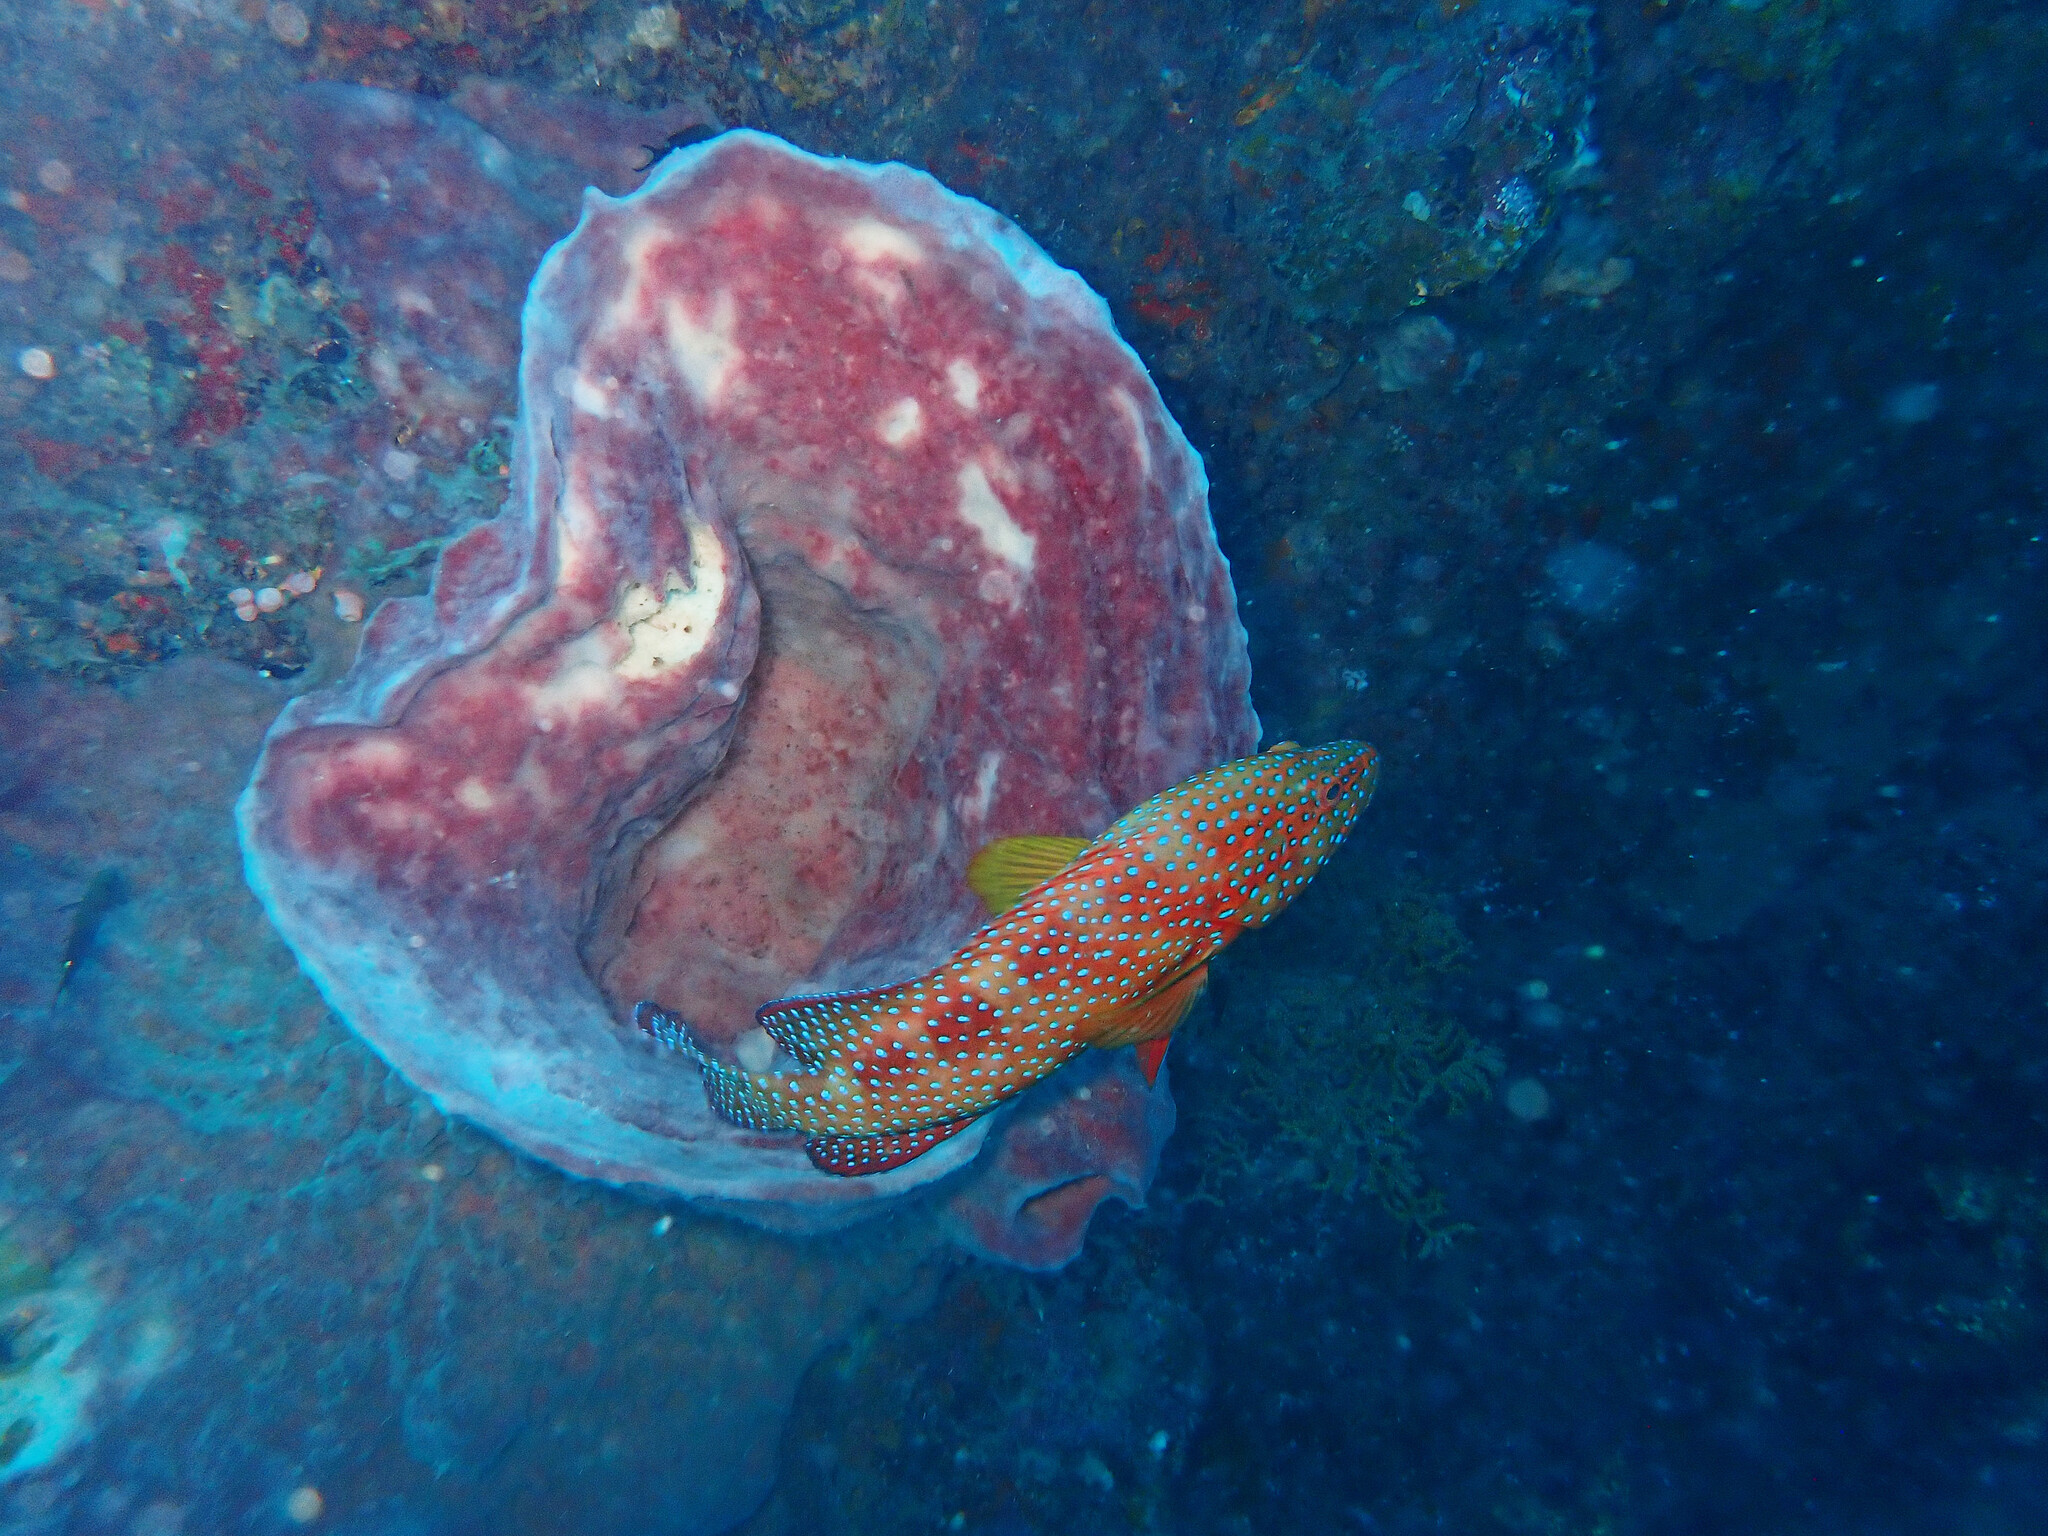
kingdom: Animalia
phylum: Chordata
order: Perciformes
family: Serranidae
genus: Cephalopholis
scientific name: Cephalopholis miniata
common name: Coral hind
